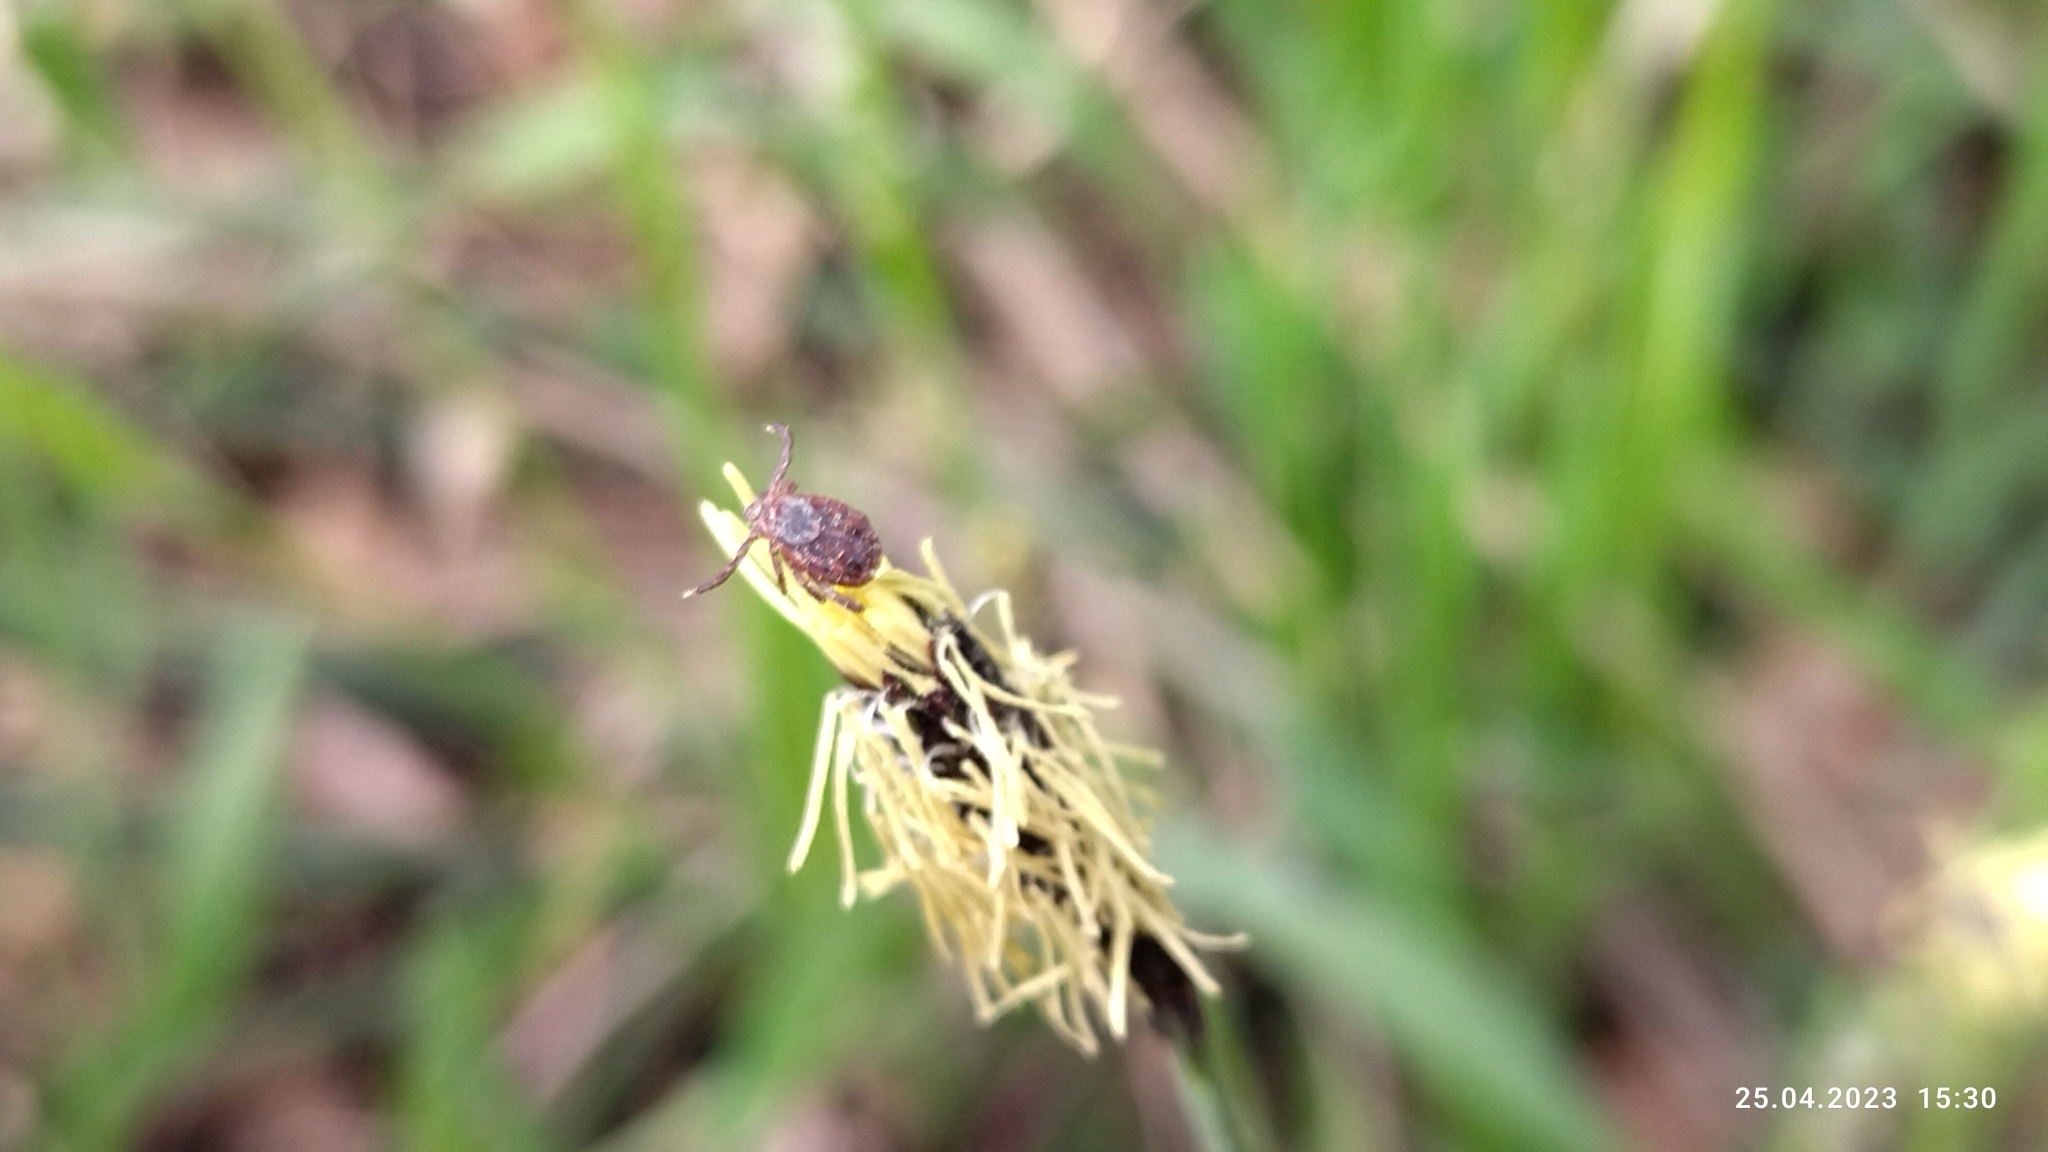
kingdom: Animalia
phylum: Arthropoda
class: Arachnida
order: Ixodida
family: Ixodidae
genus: Dermacentor
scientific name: Dermacentor reticulatus
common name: Ornate cow tick
